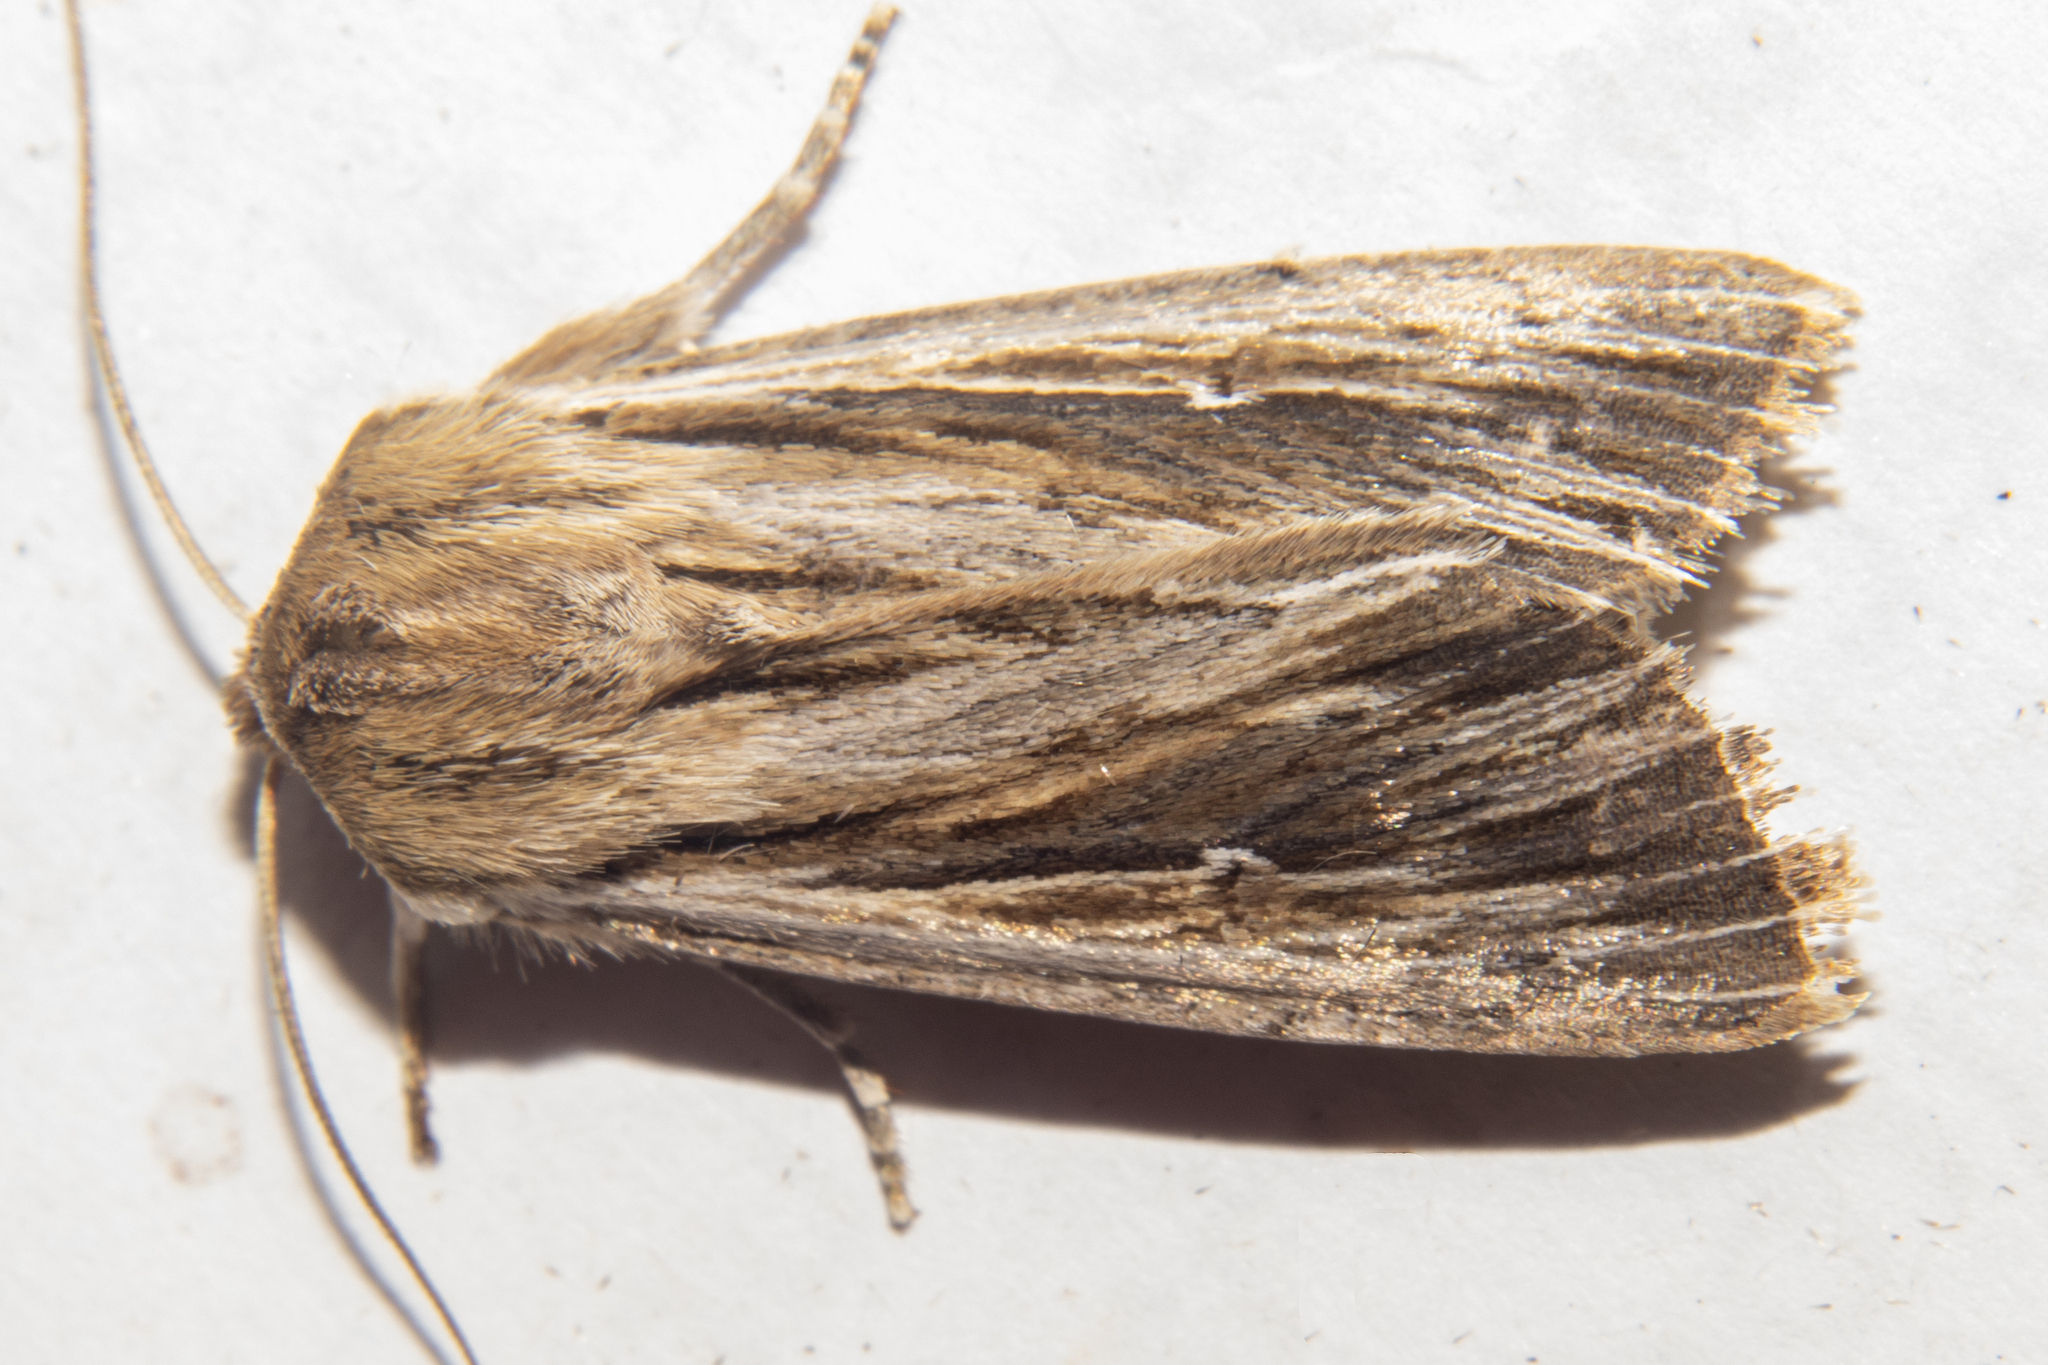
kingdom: Animalia
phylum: Arthropoda
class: Insecta
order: Lepidoptera
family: Noctuidae
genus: Persectania
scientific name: Persectania aversa
